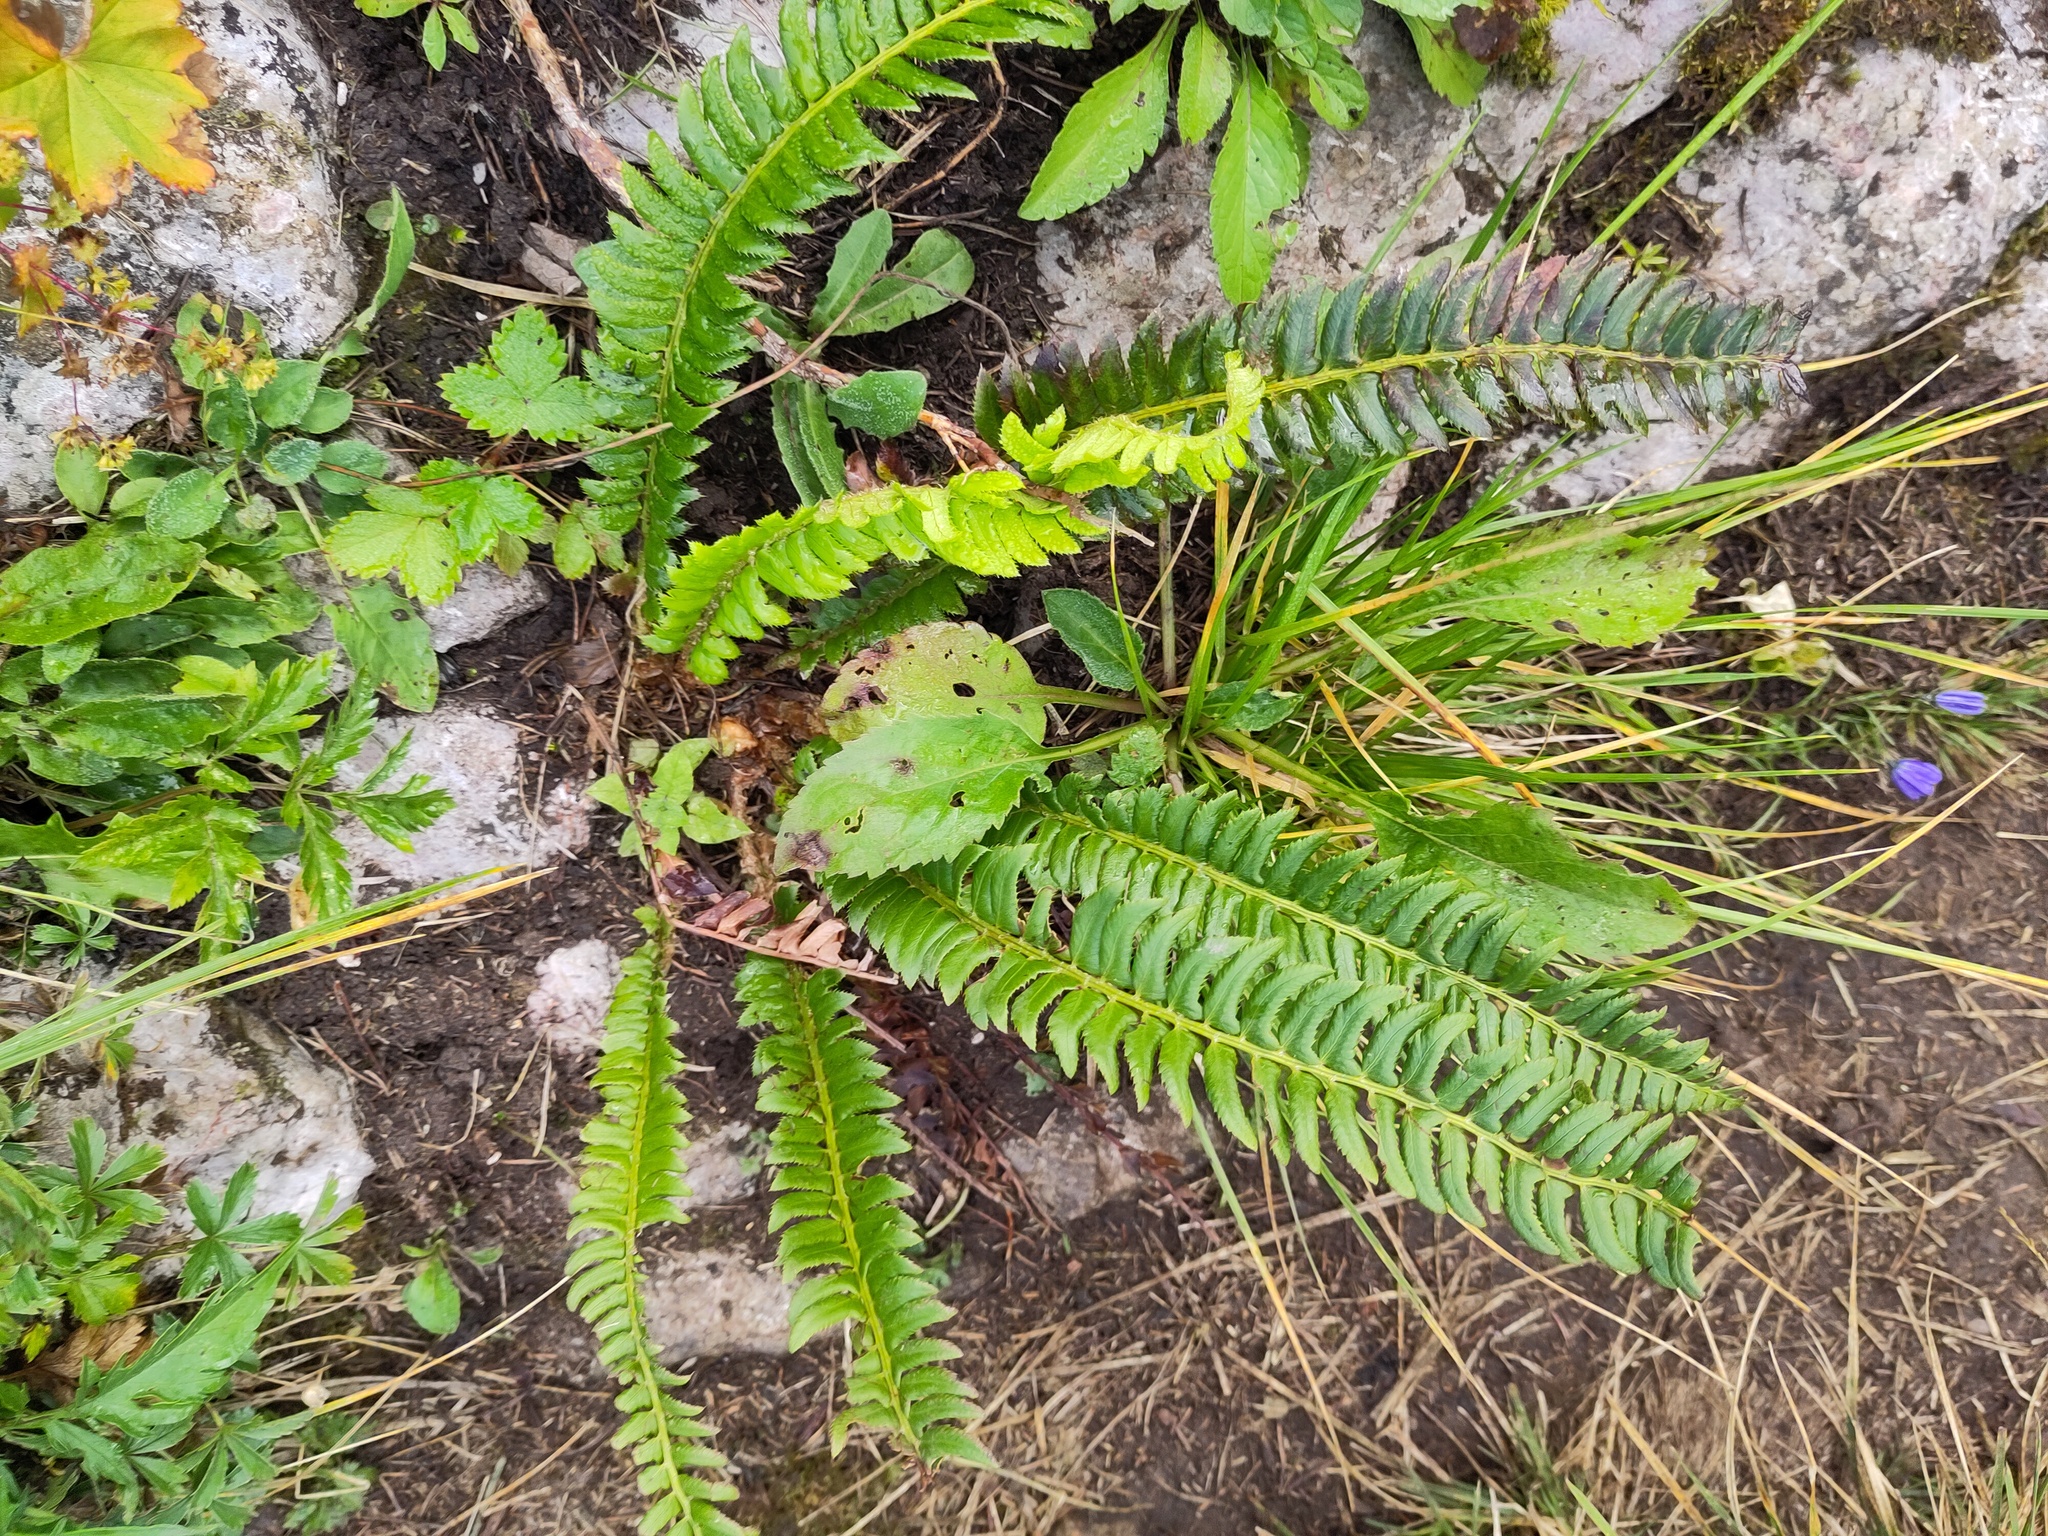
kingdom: Plantae
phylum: Tracheophyta
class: Polypodiopsida
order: Polypodiales
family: Dryopteridaceae
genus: Polystichum
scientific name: Polystichum lonchitis
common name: Holly fern
